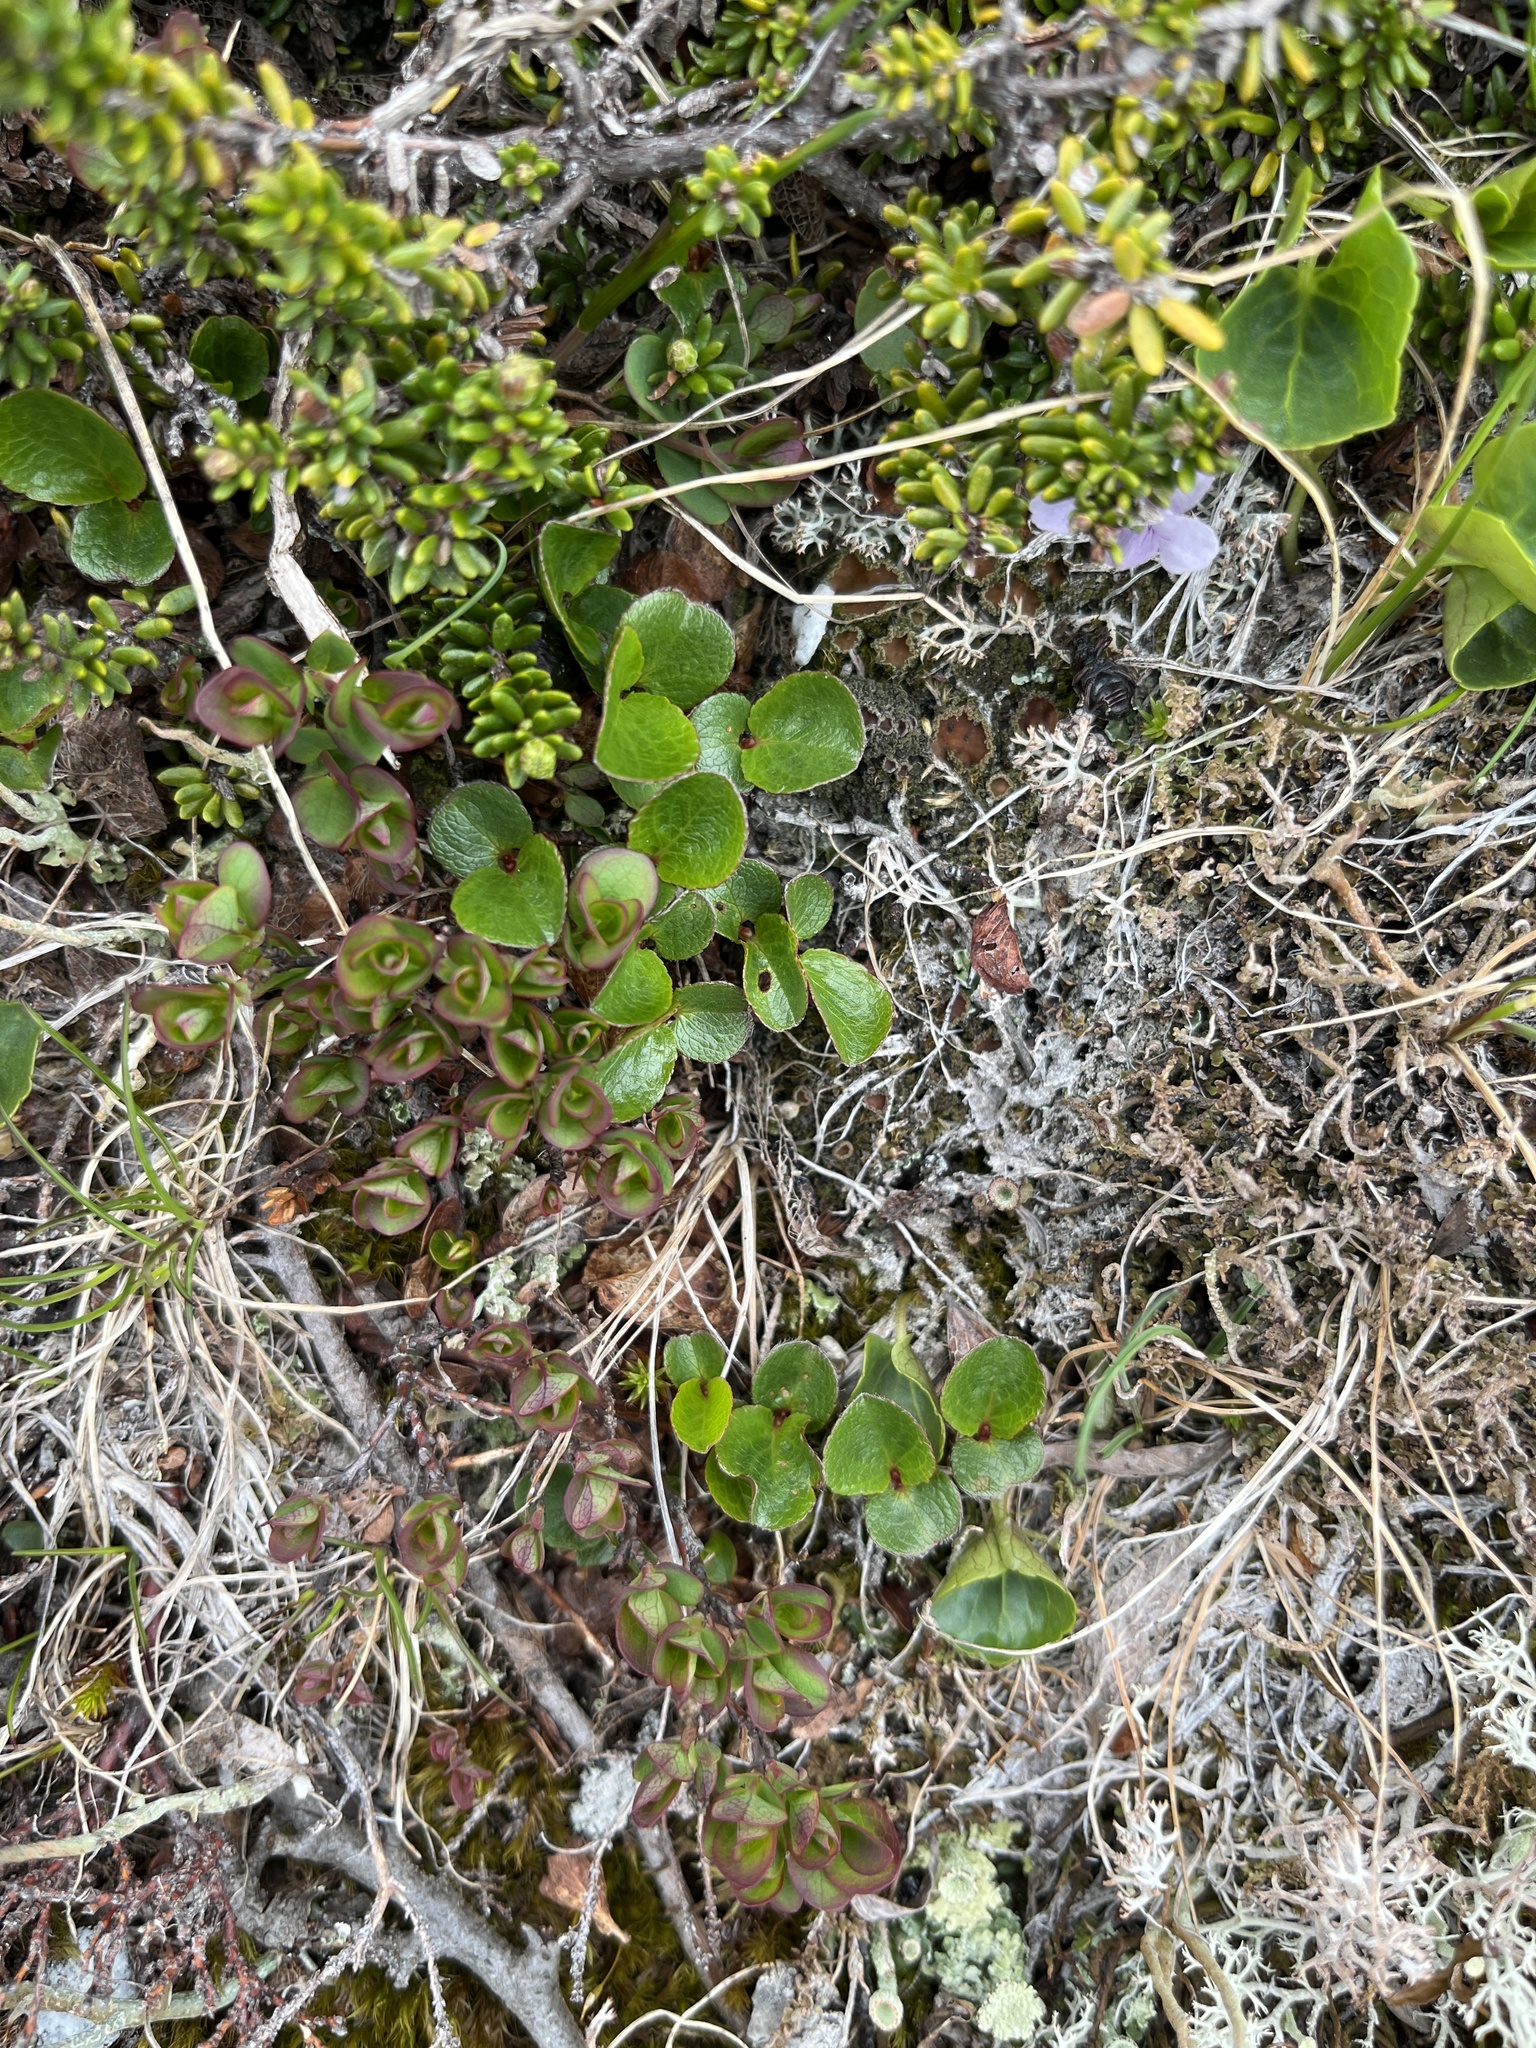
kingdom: Plantae
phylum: Tracheophyta
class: Magnoliopsida
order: Malpighiales
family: Salicaceae
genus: Salix
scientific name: Salix herbacea
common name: Dwarf willow
